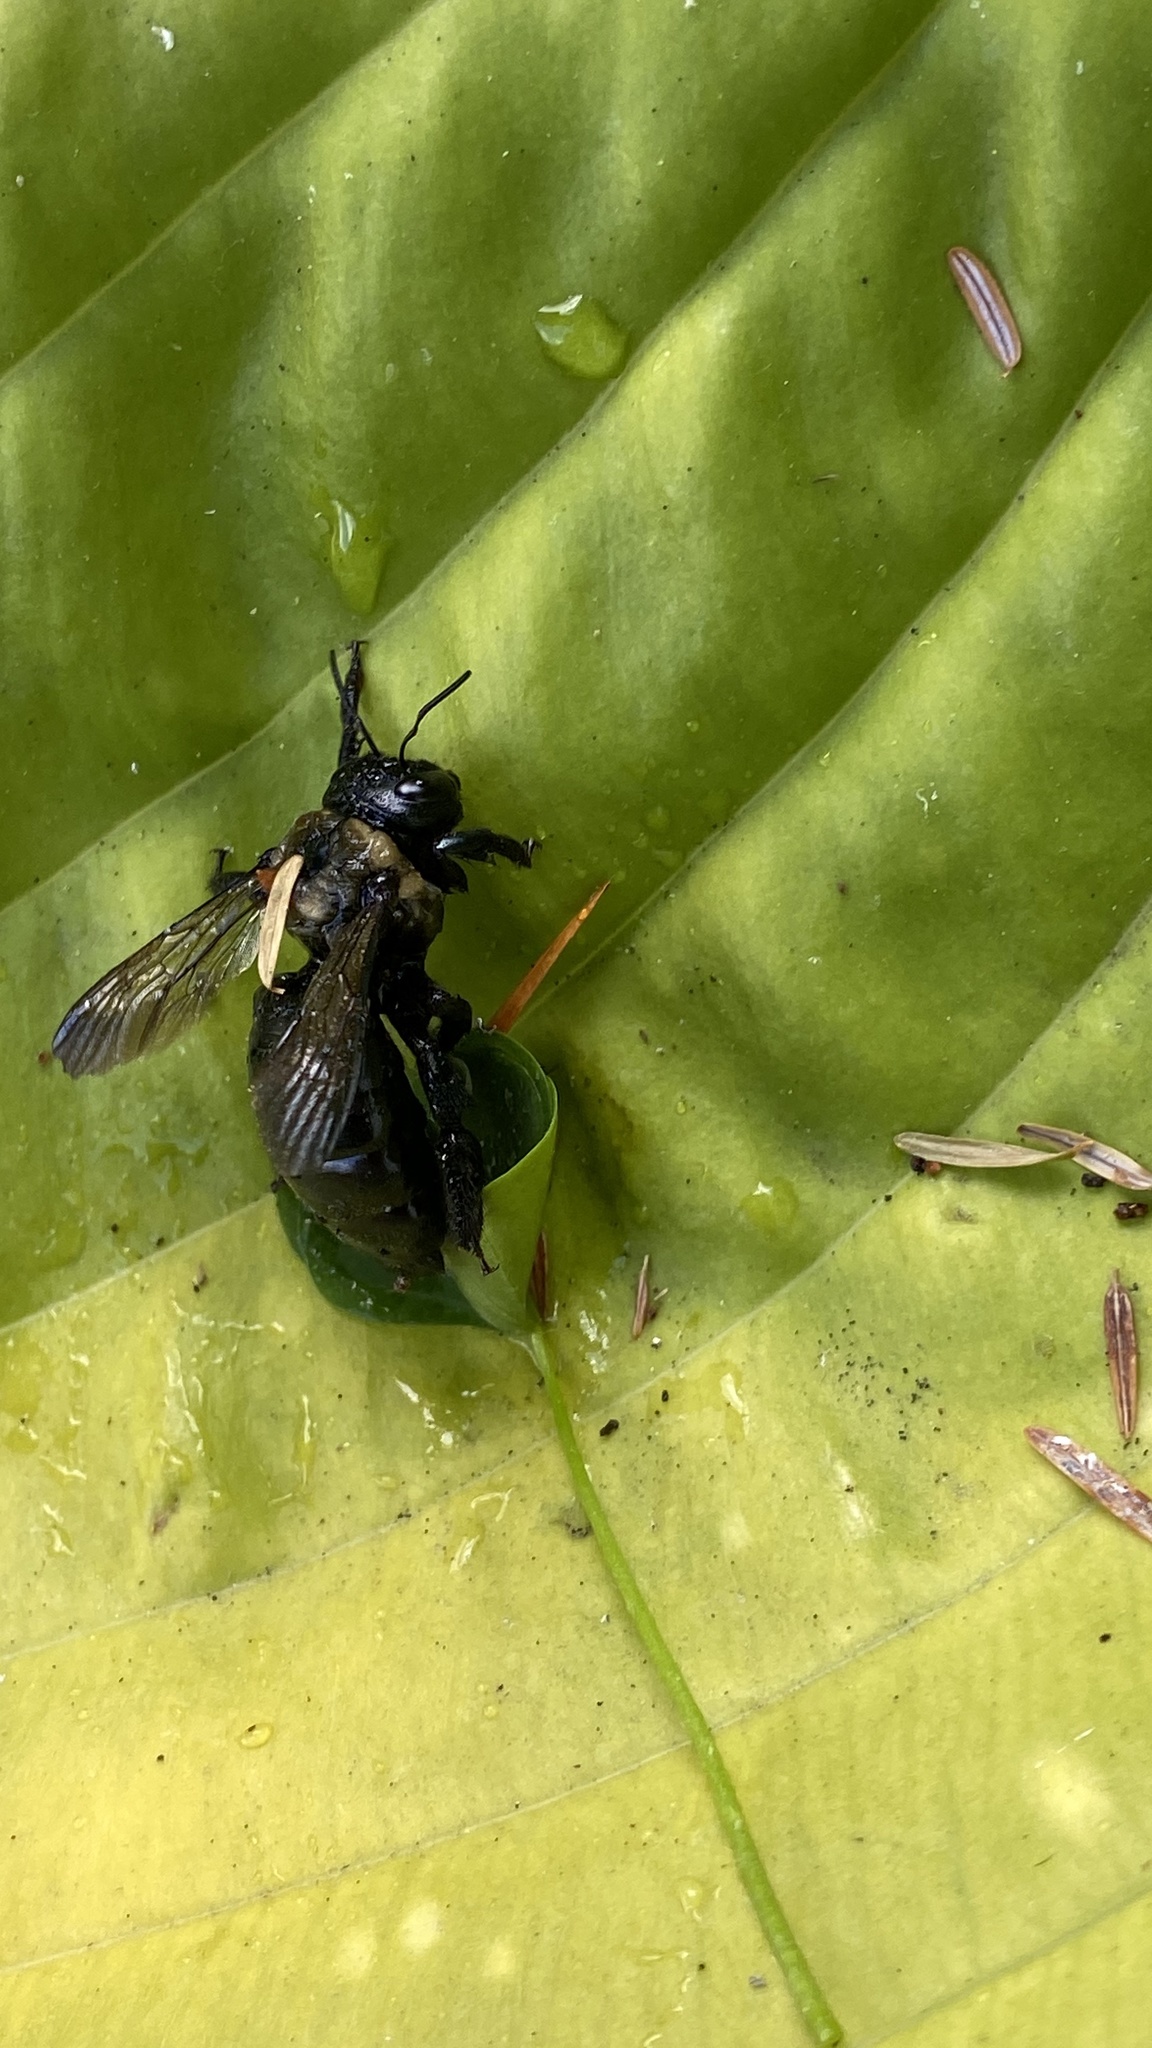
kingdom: Animalia
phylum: Arthropoda
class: Insecta
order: Hymenoptera
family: Apidae
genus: Xylocopa
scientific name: Xylocopa virginica
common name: Carpenter bee
